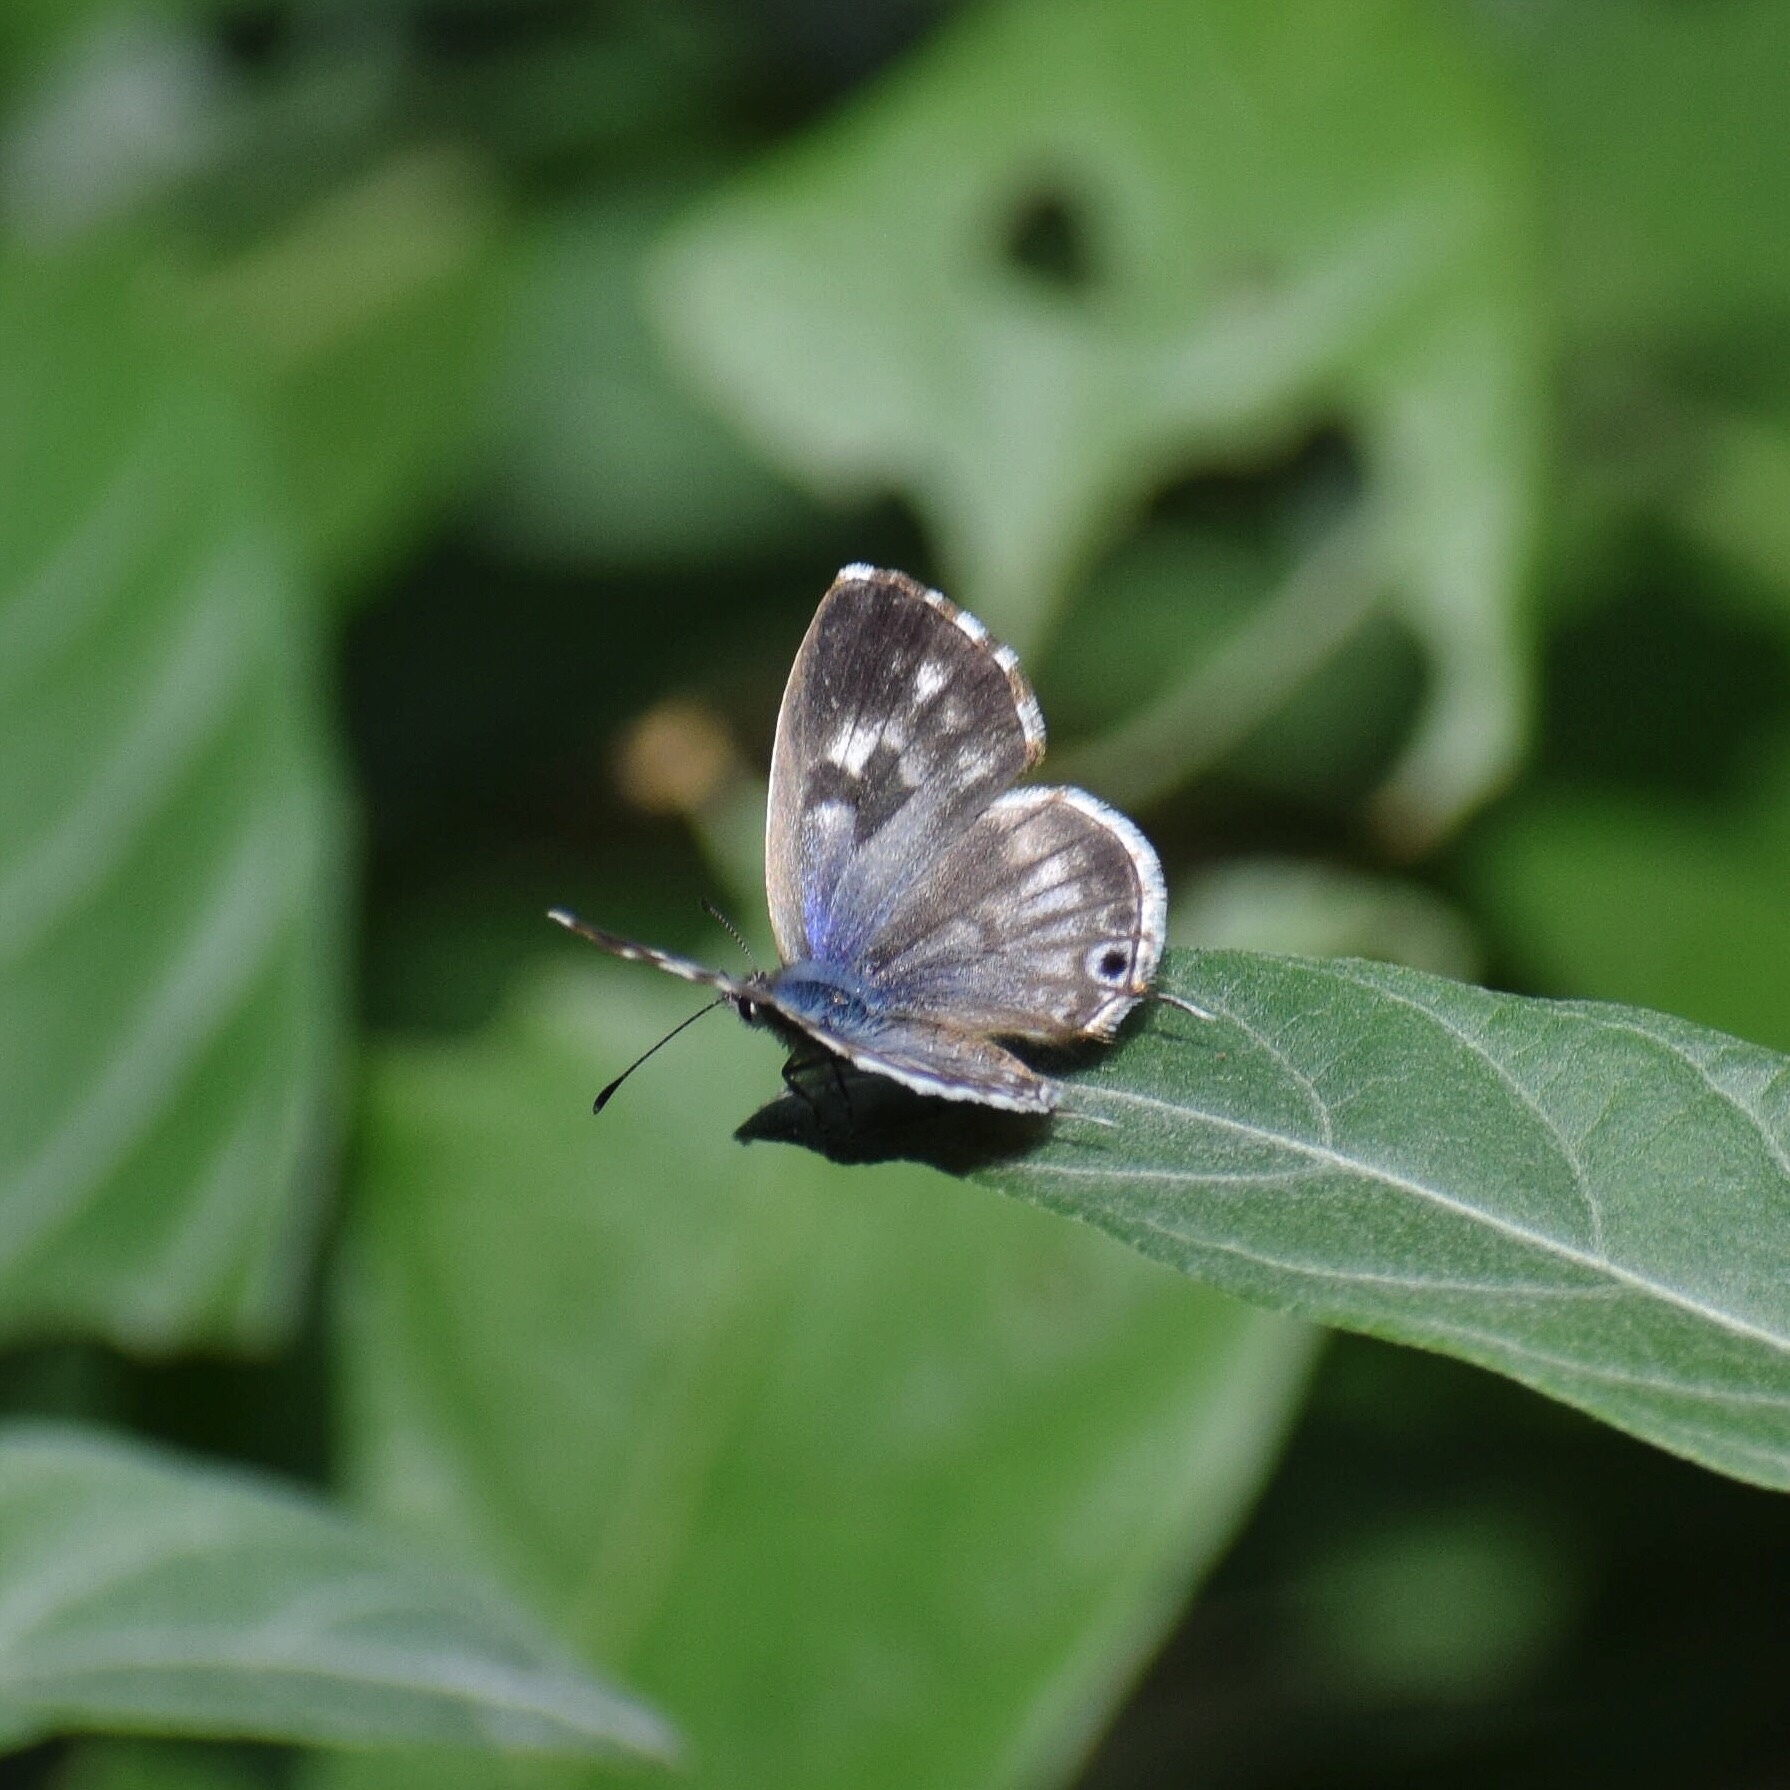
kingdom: Animalia
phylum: Arthropoda
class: Insecta
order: Lepidoptera
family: Lycaenidae
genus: Cacyreus
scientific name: Cacyreus lingeus
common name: Bush bronze
